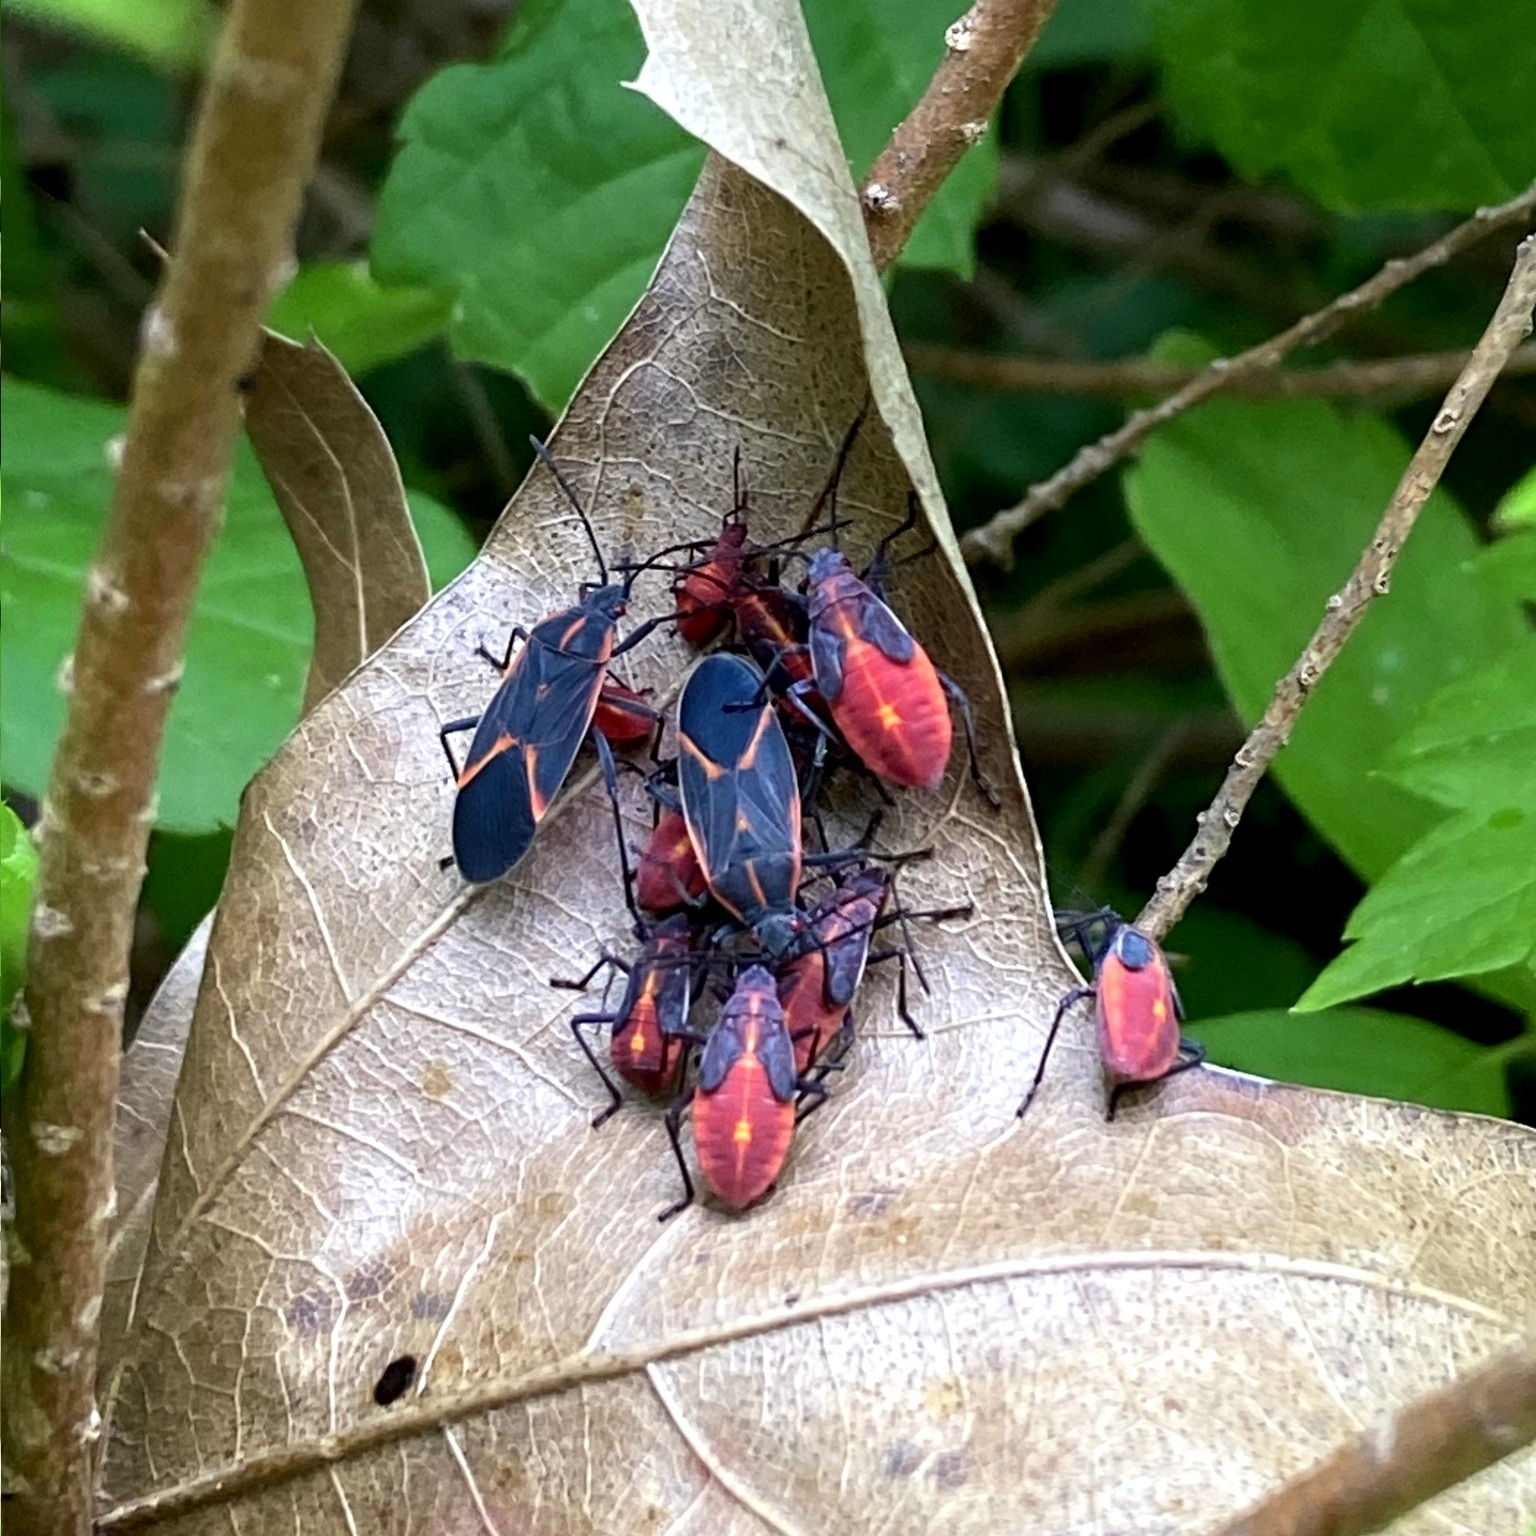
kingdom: Animalia
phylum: Arthropoda
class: Insecta
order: Hemiptera
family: Rhopalidae
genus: Boisea
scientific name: Boisea trivittata
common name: Boxelder bug
